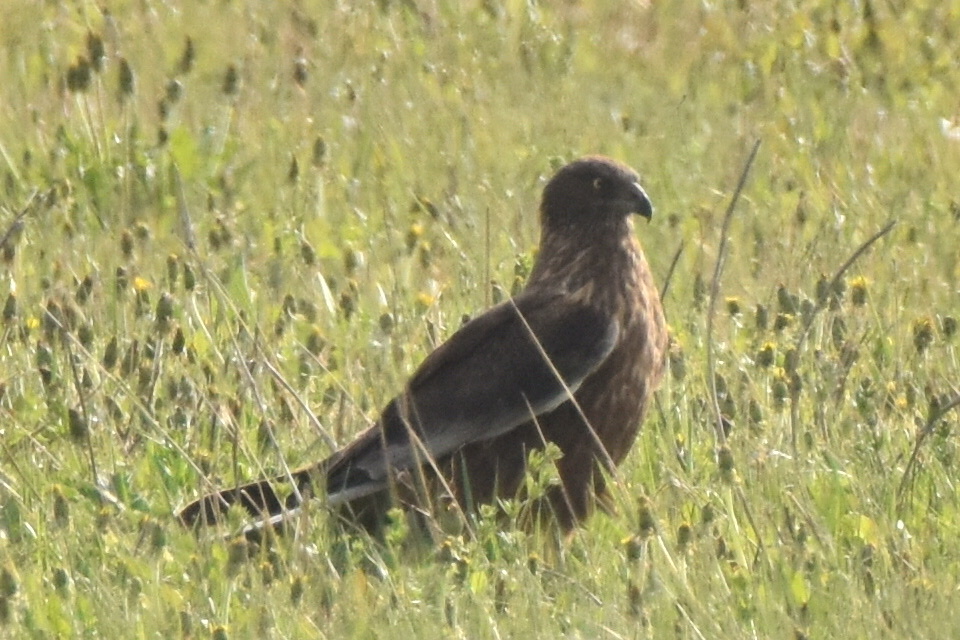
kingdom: Animalia
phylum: Chordata
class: Aves
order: Accipitriformes
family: Accipitridae
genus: Circus
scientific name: Circus aeruginosus
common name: Western marsh harrier
